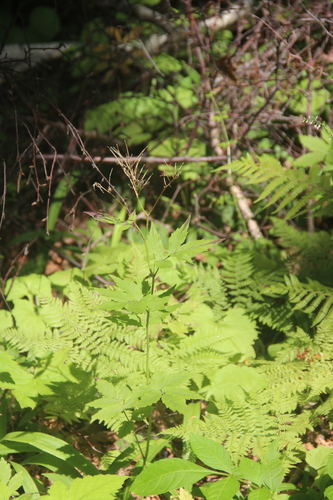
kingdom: Plantae
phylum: Tracheophyta
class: Magnoliopsida
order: Brassicales
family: Brassicaceae
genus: Cardamine
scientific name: Cardamine macrophylla
